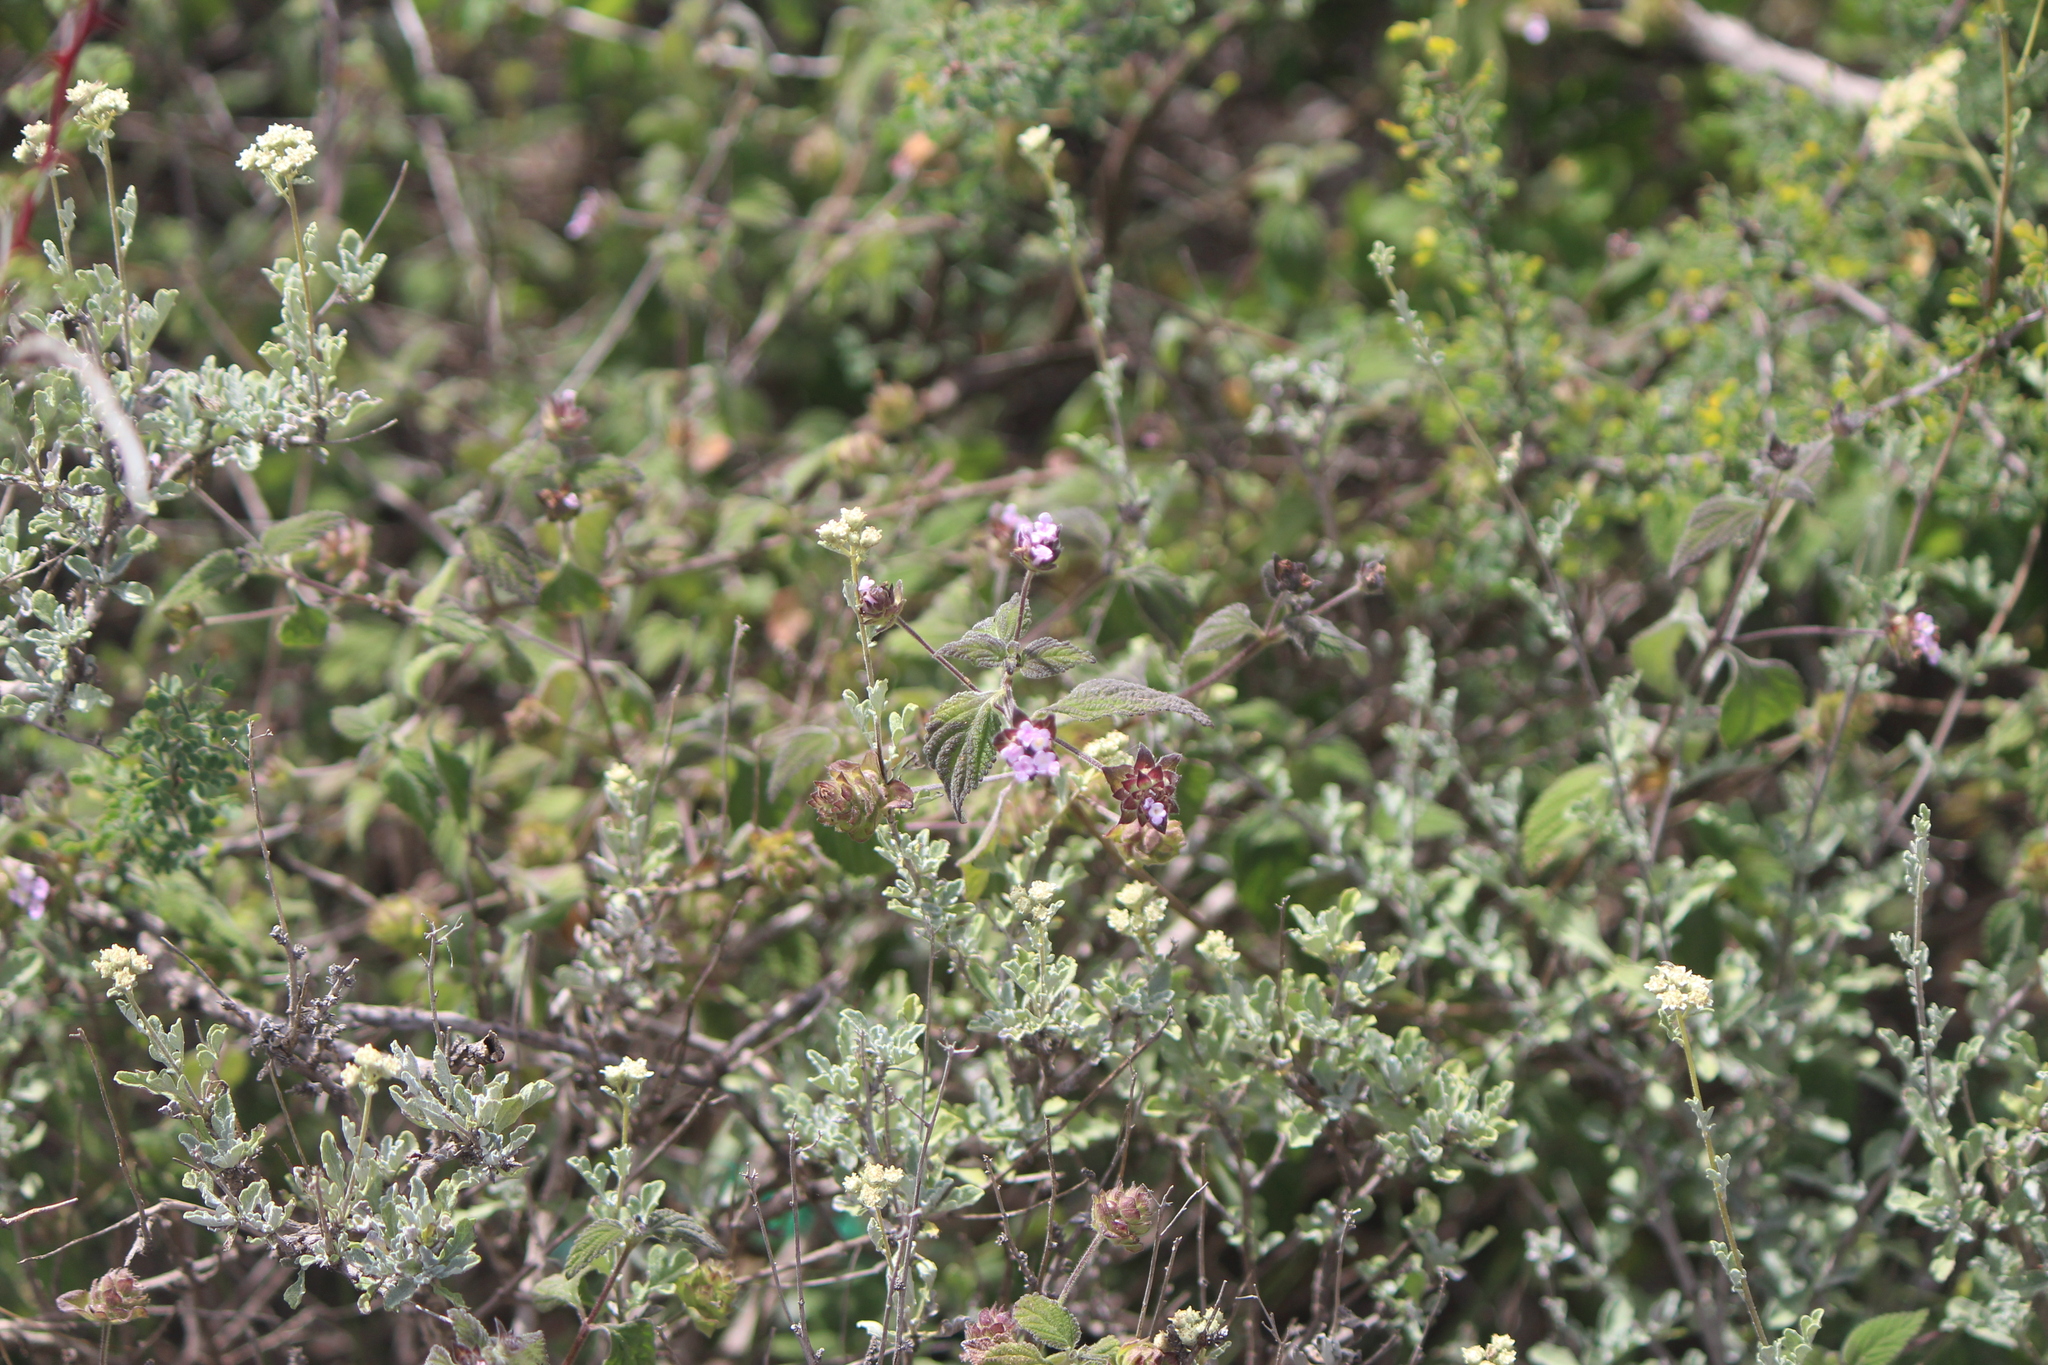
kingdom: Plantae
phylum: Tracheophyta
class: Magnoliopsida
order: Lamiales
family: Verbenaceae
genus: Lantana
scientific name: Lantana hirta
